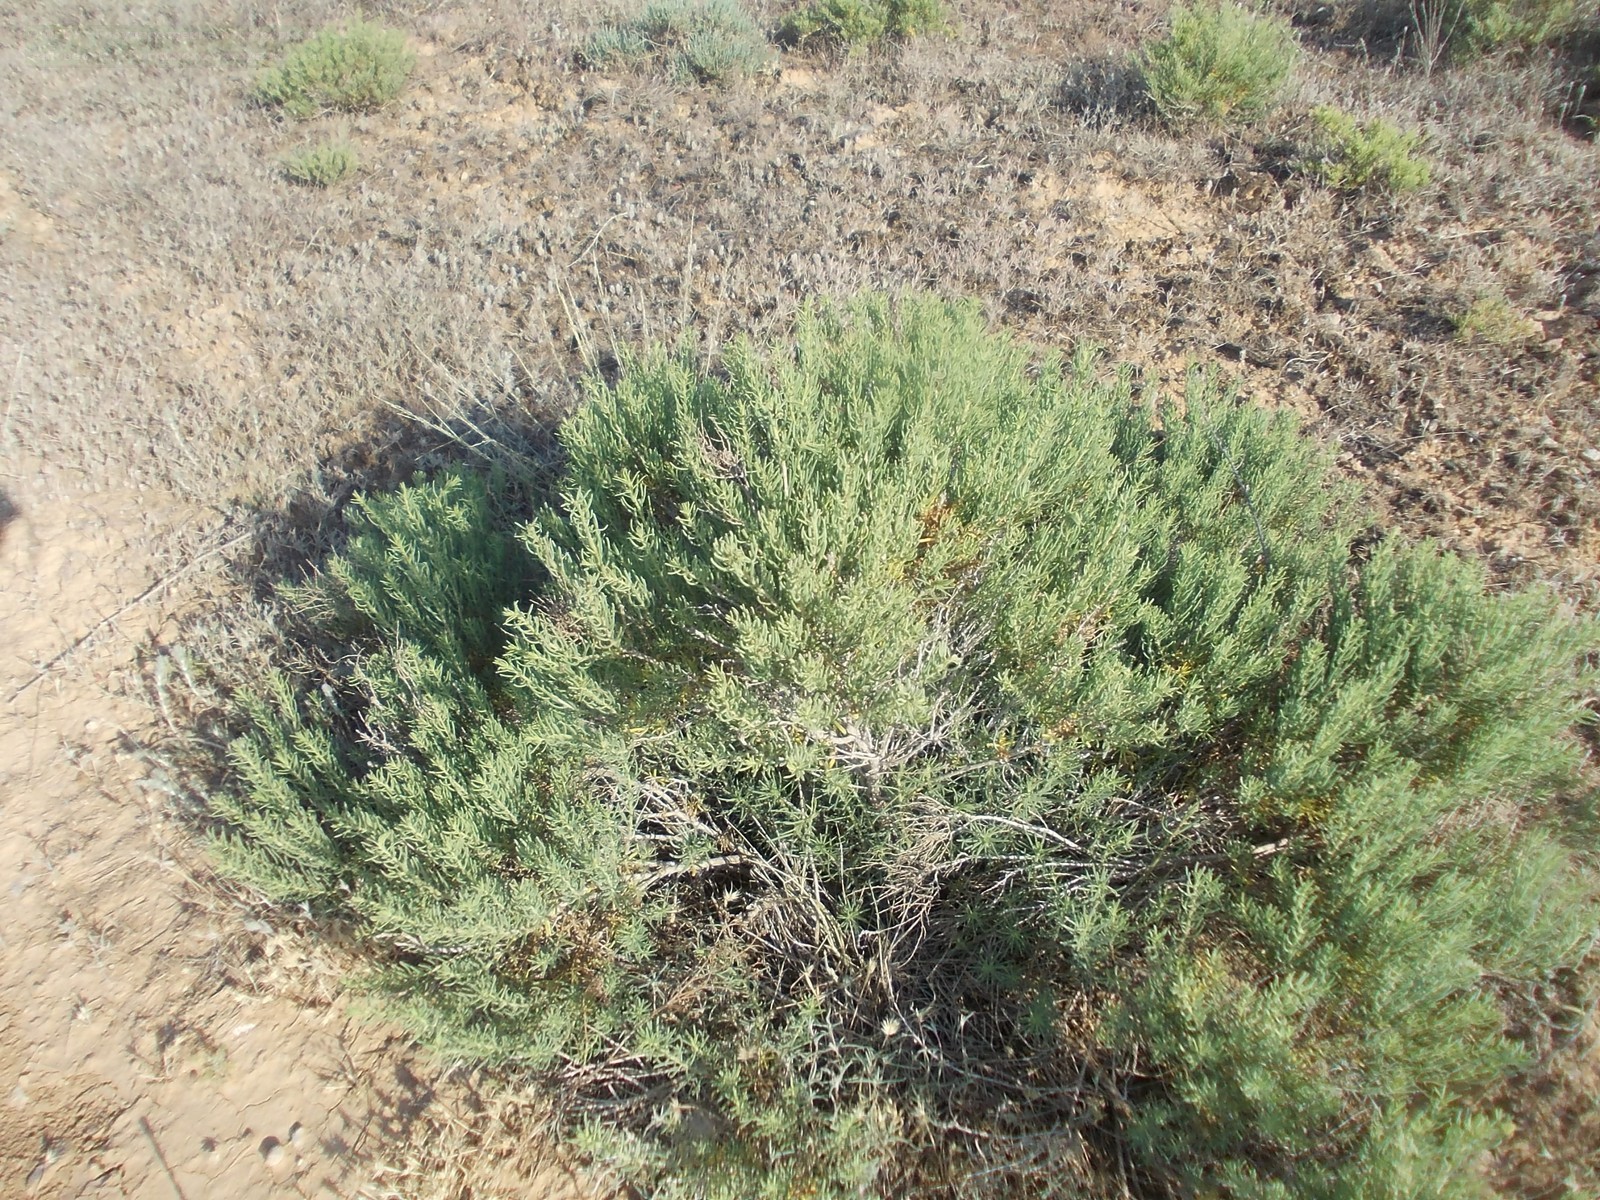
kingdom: Plantae
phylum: Tracheophyta
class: Magnoliopsida
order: Caryophyllales
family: Amaranthaceae
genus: Suaeda
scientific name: Suaeda physophora
